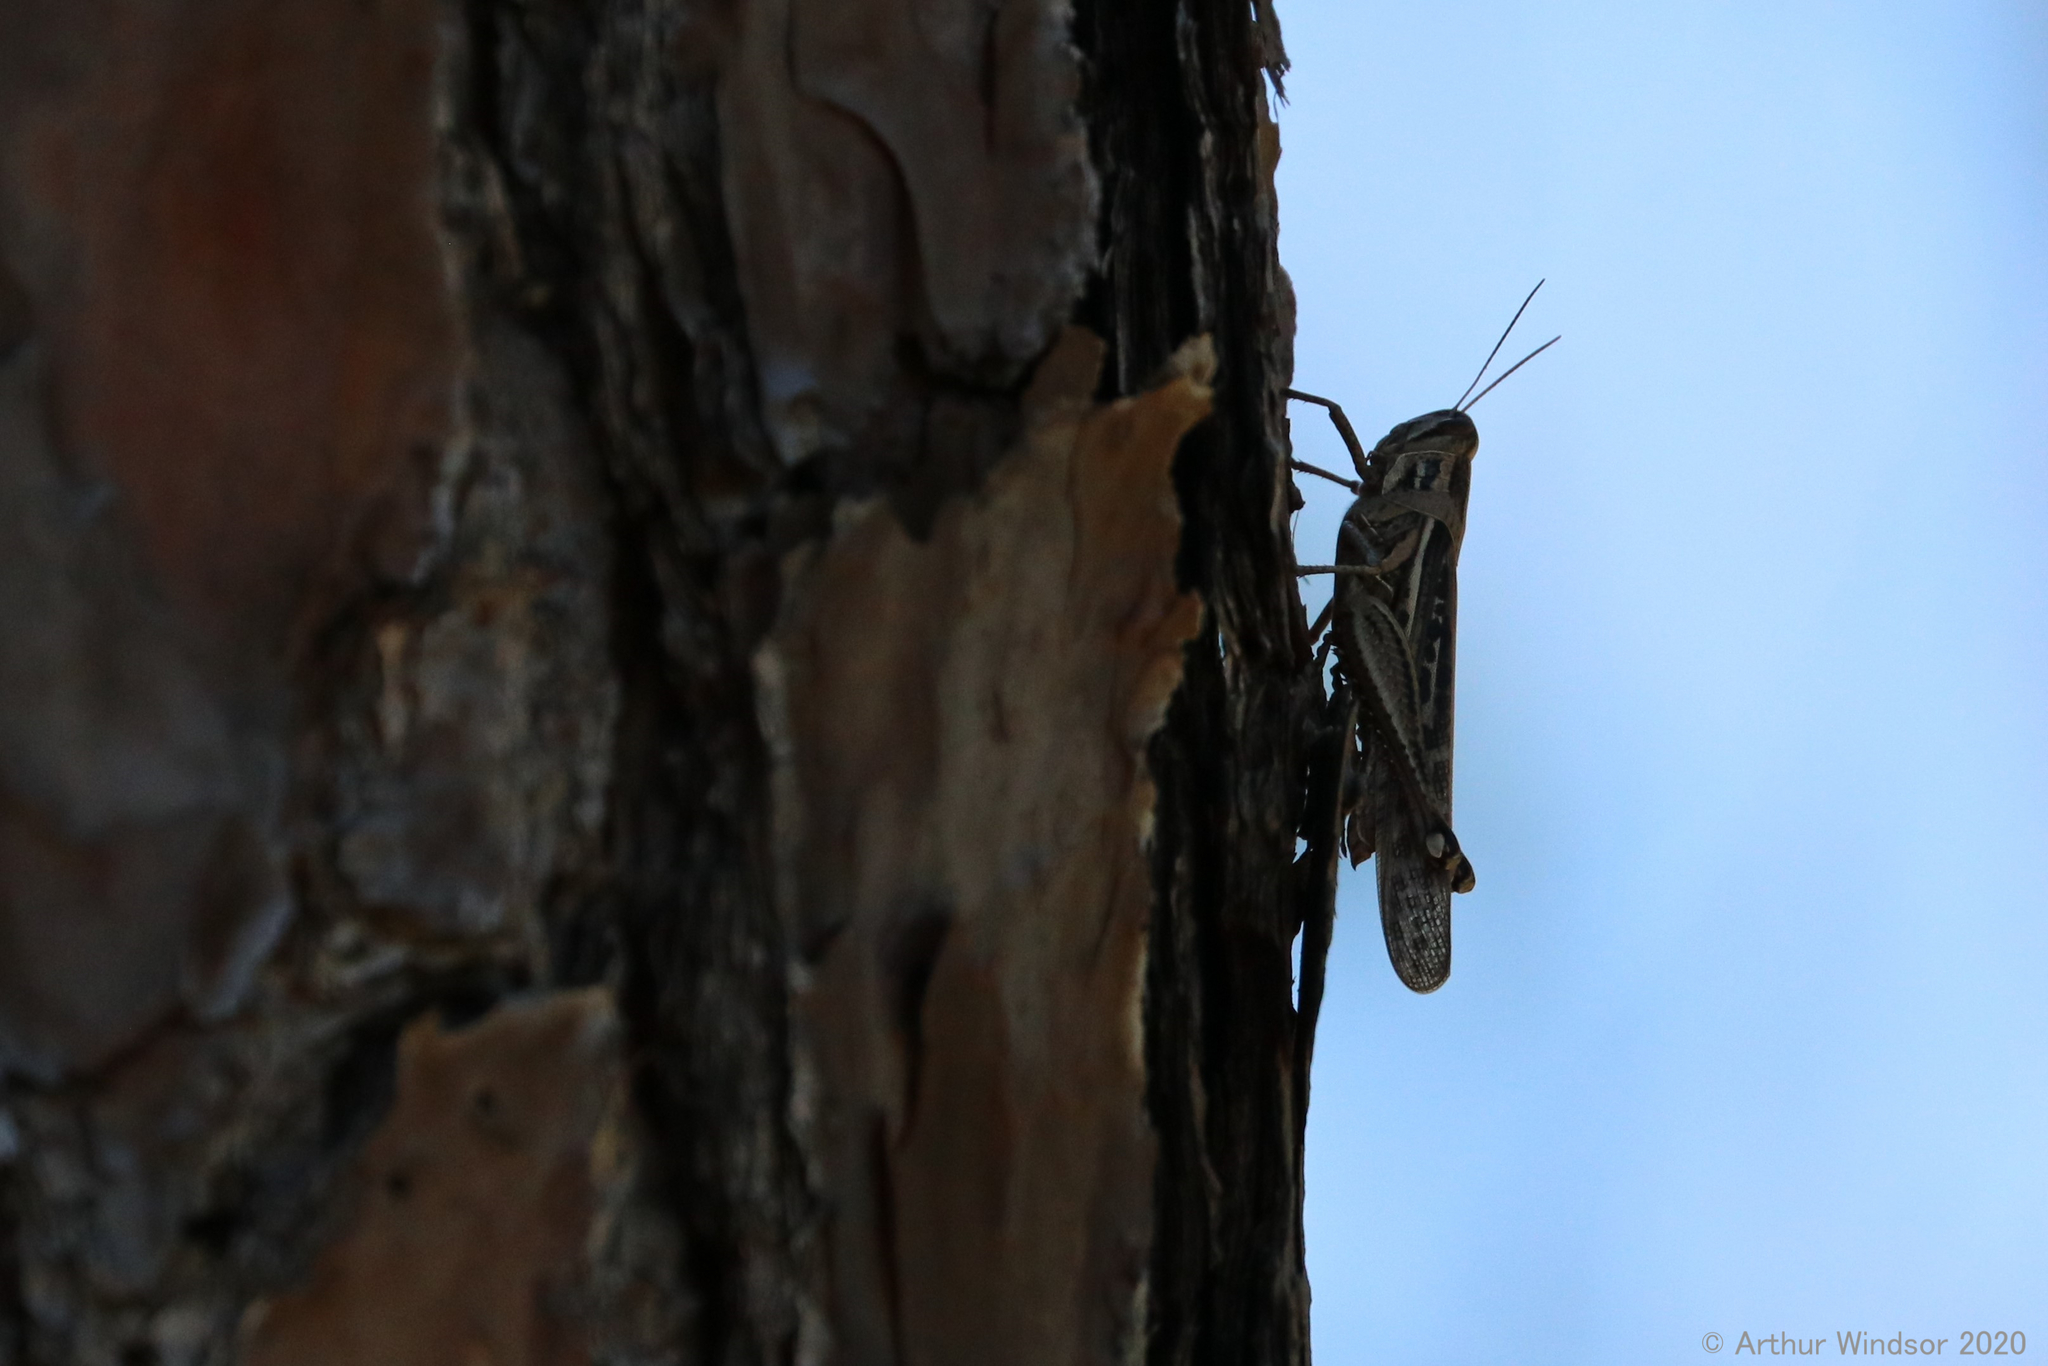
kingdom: Animalia
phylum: Arthropoda
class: Insecta
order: Orthoptera
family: Acrididae
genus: Schistocerca
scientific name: Schistocerca serialis
